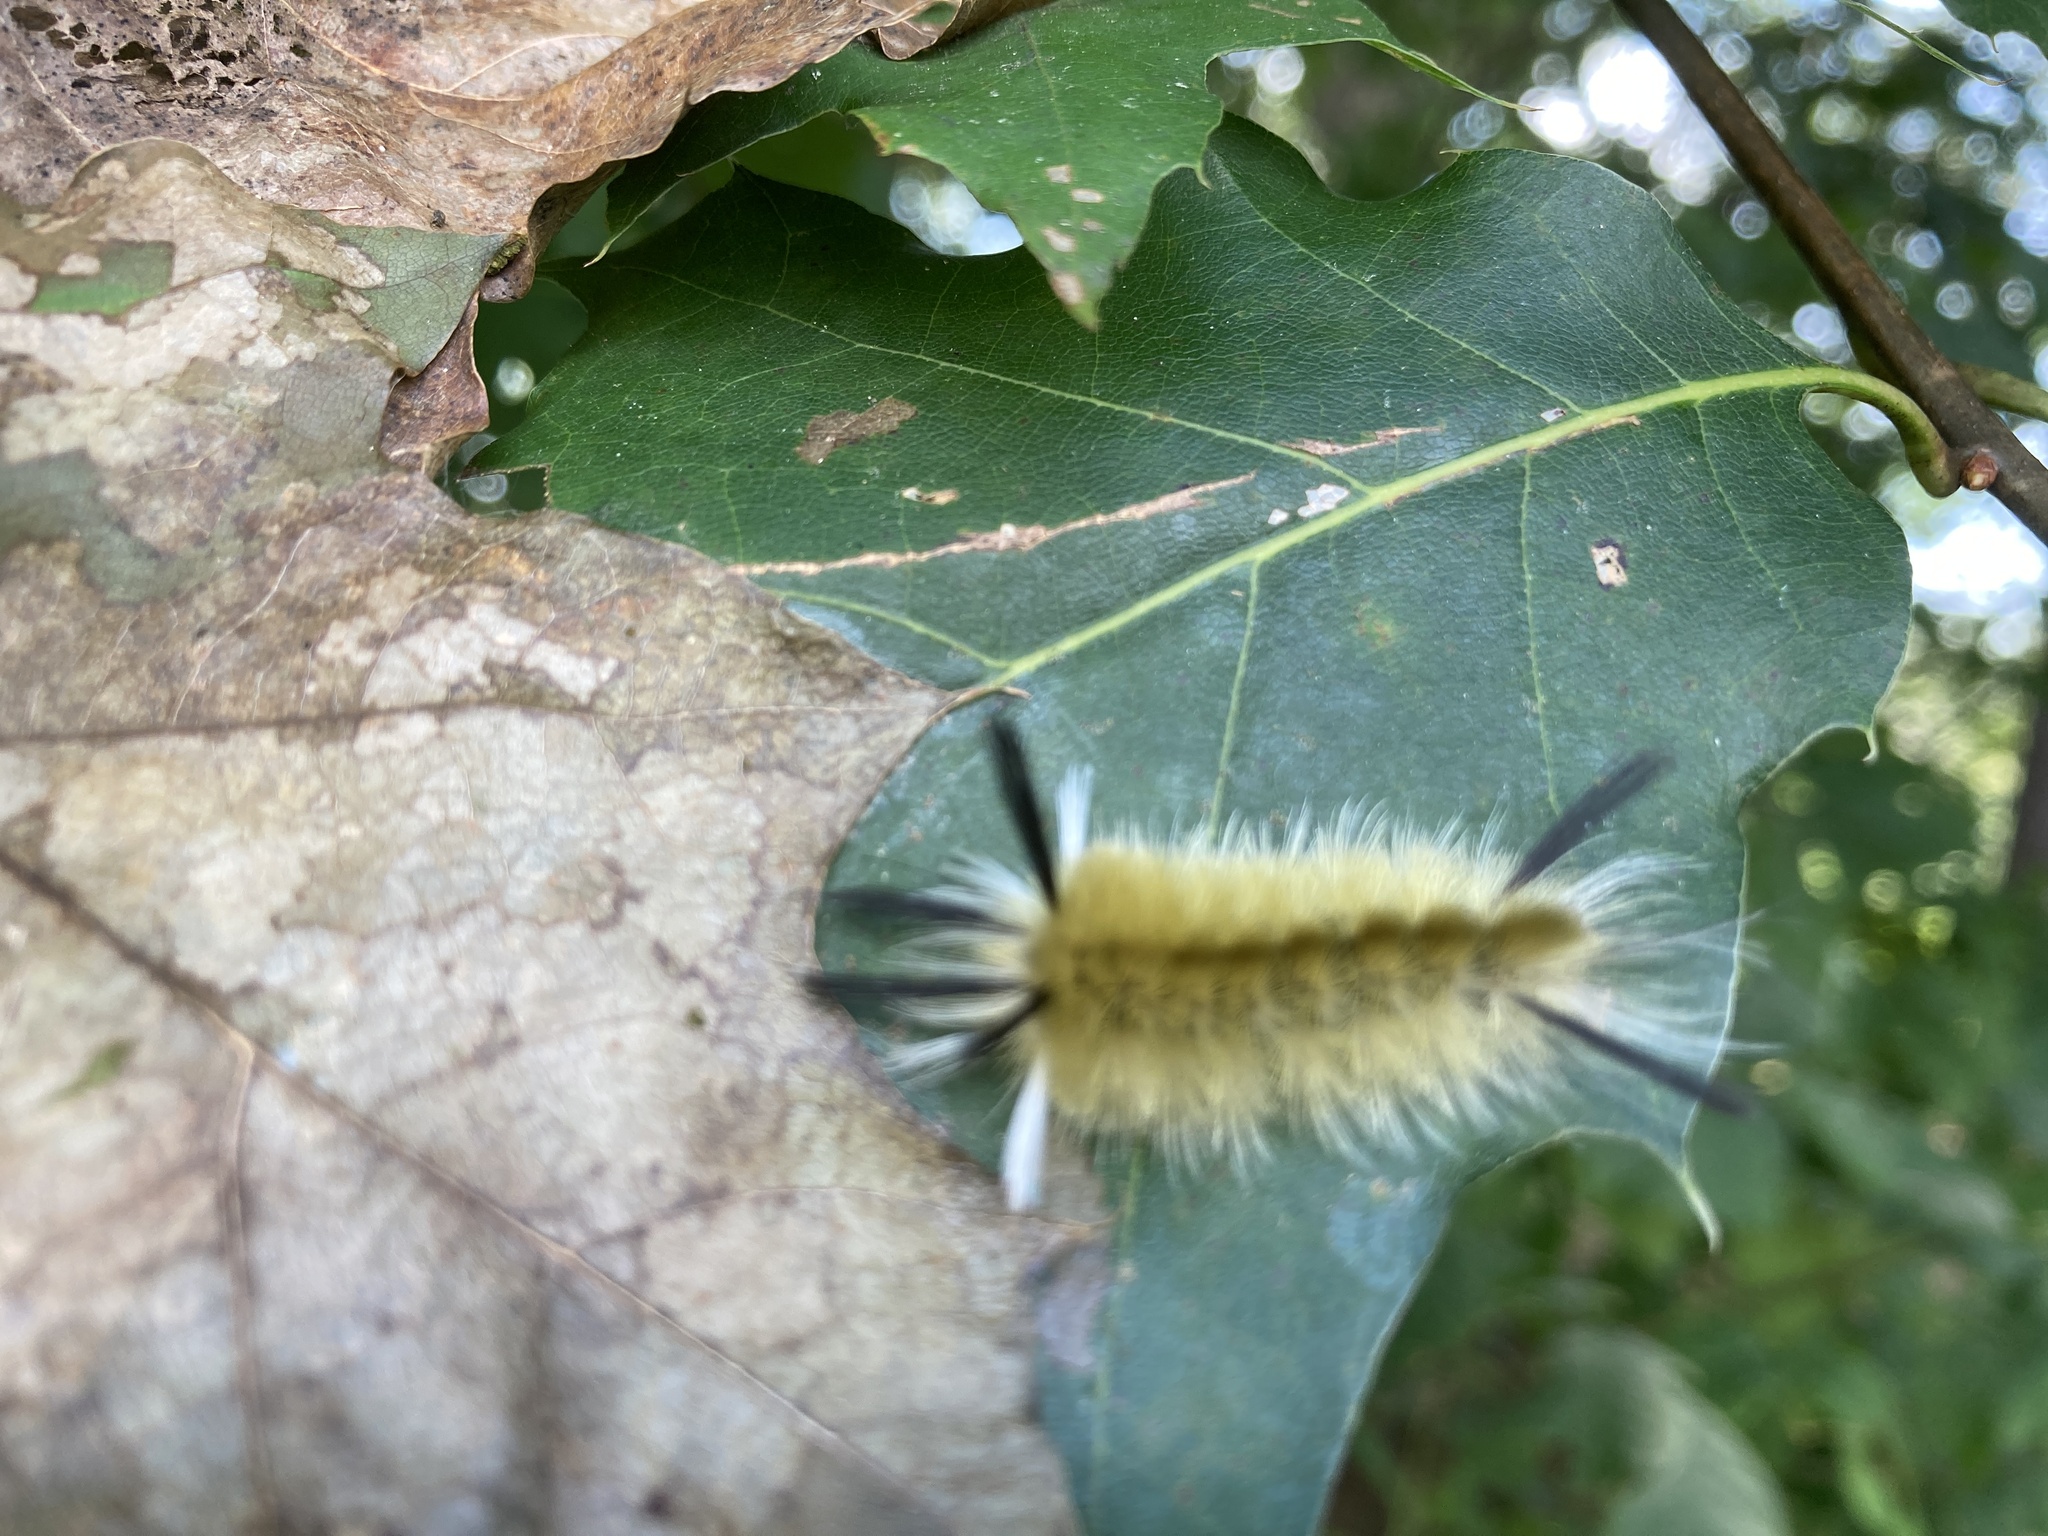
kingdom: Animalia
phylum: Arthropoda
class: Insecta
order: Lepidoptera
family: Erebidae
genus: Halysidota
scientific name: Halysidota tessellaris
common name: Banded tussock moth
